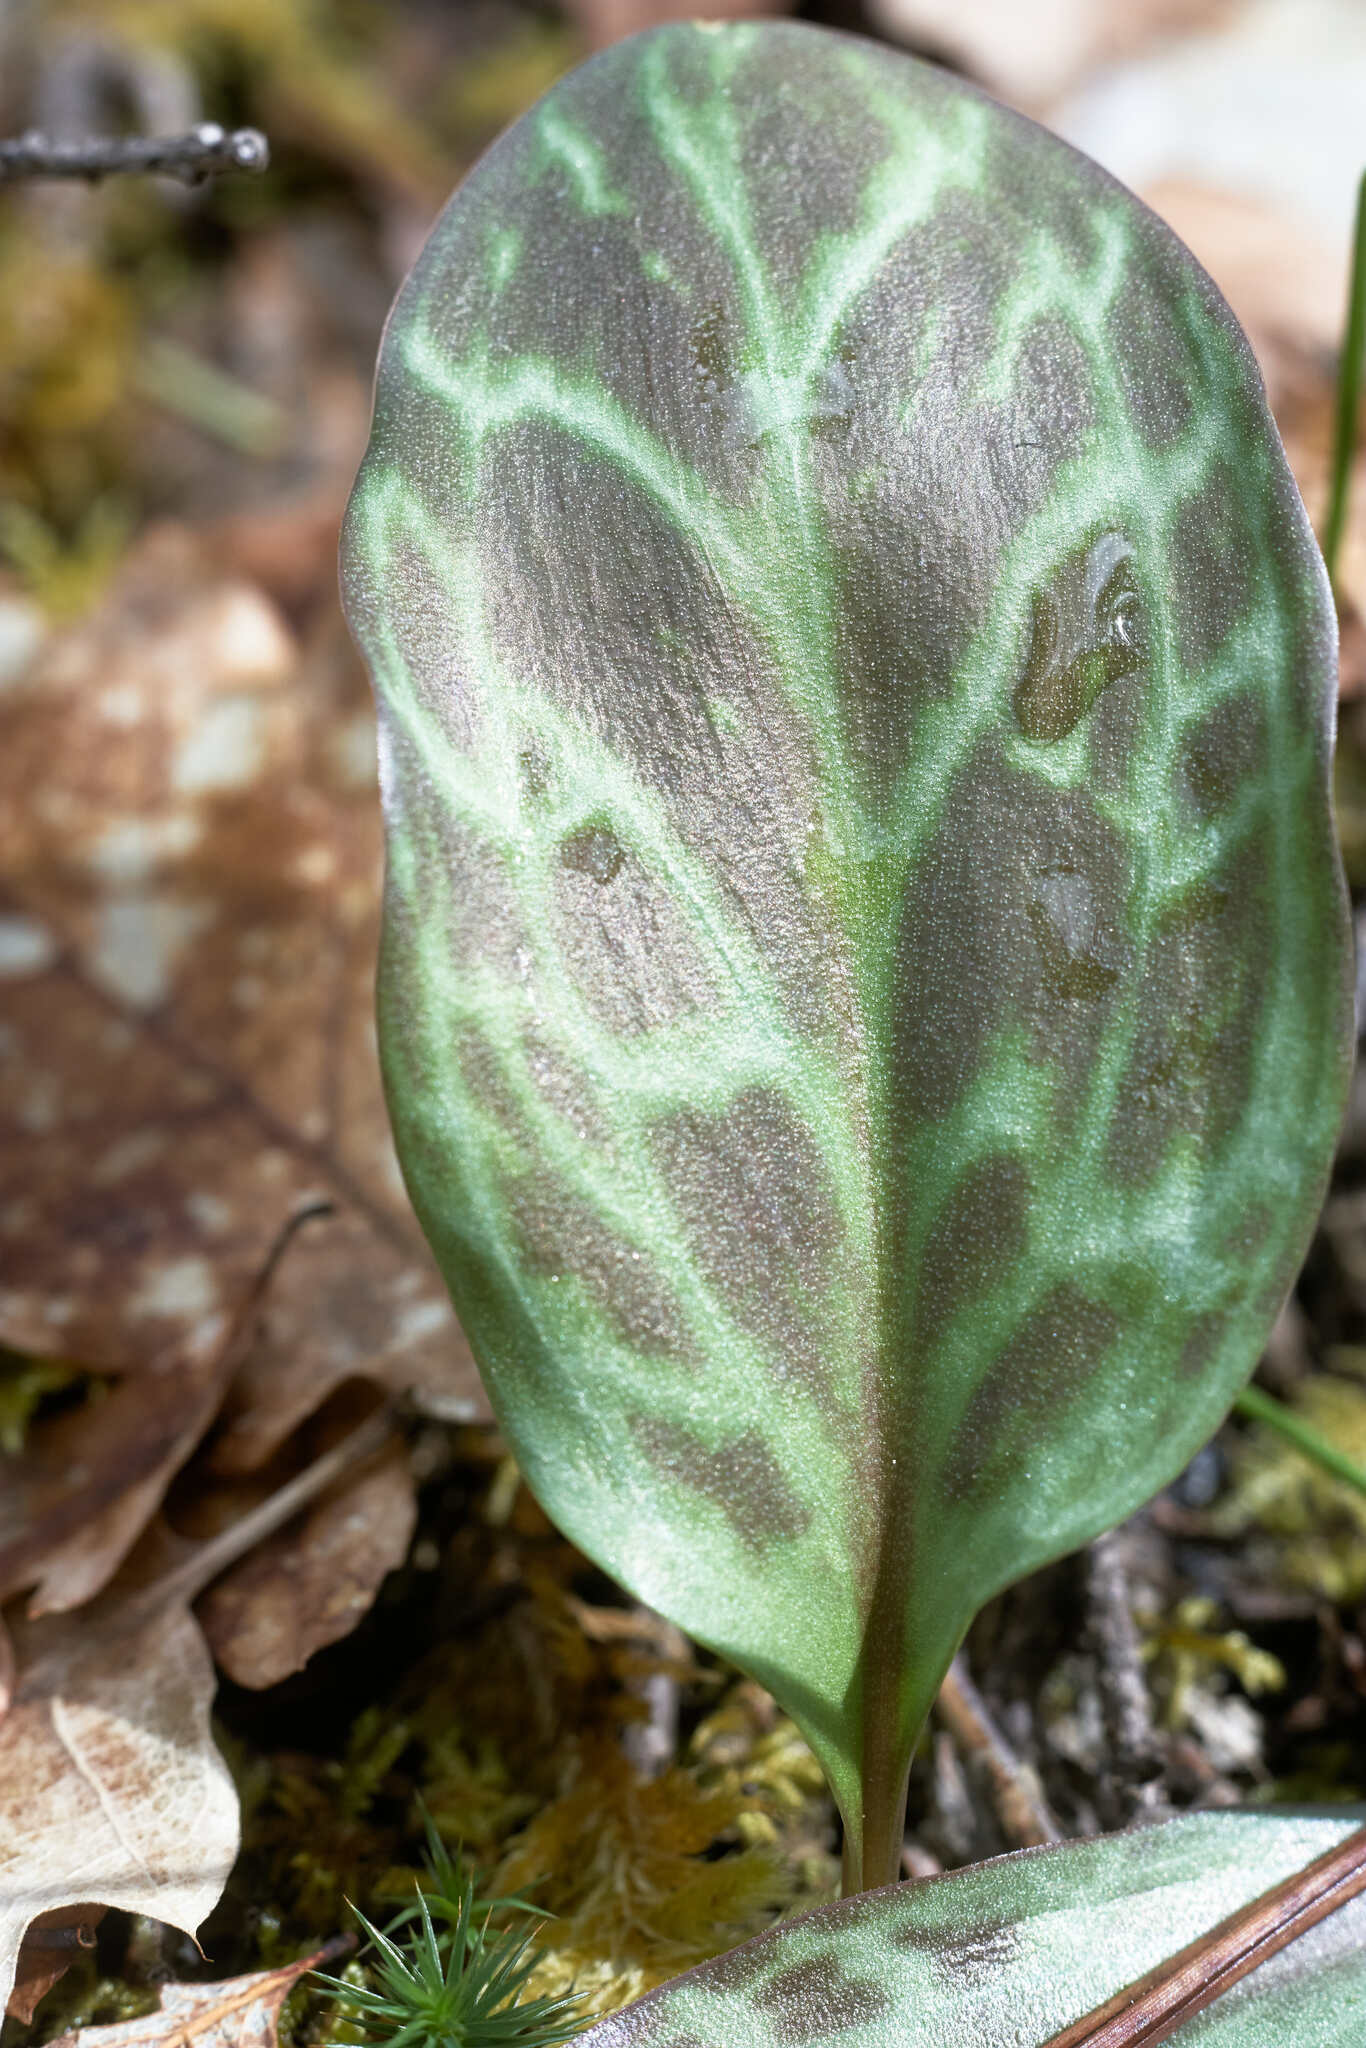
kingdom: Plantae
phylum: Tracheophyta
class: Liliopsida
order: Liliales
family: Liliaceae
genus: Erythronium
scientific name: Erythronium hendersonii
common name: Henderson's fawn-lily
